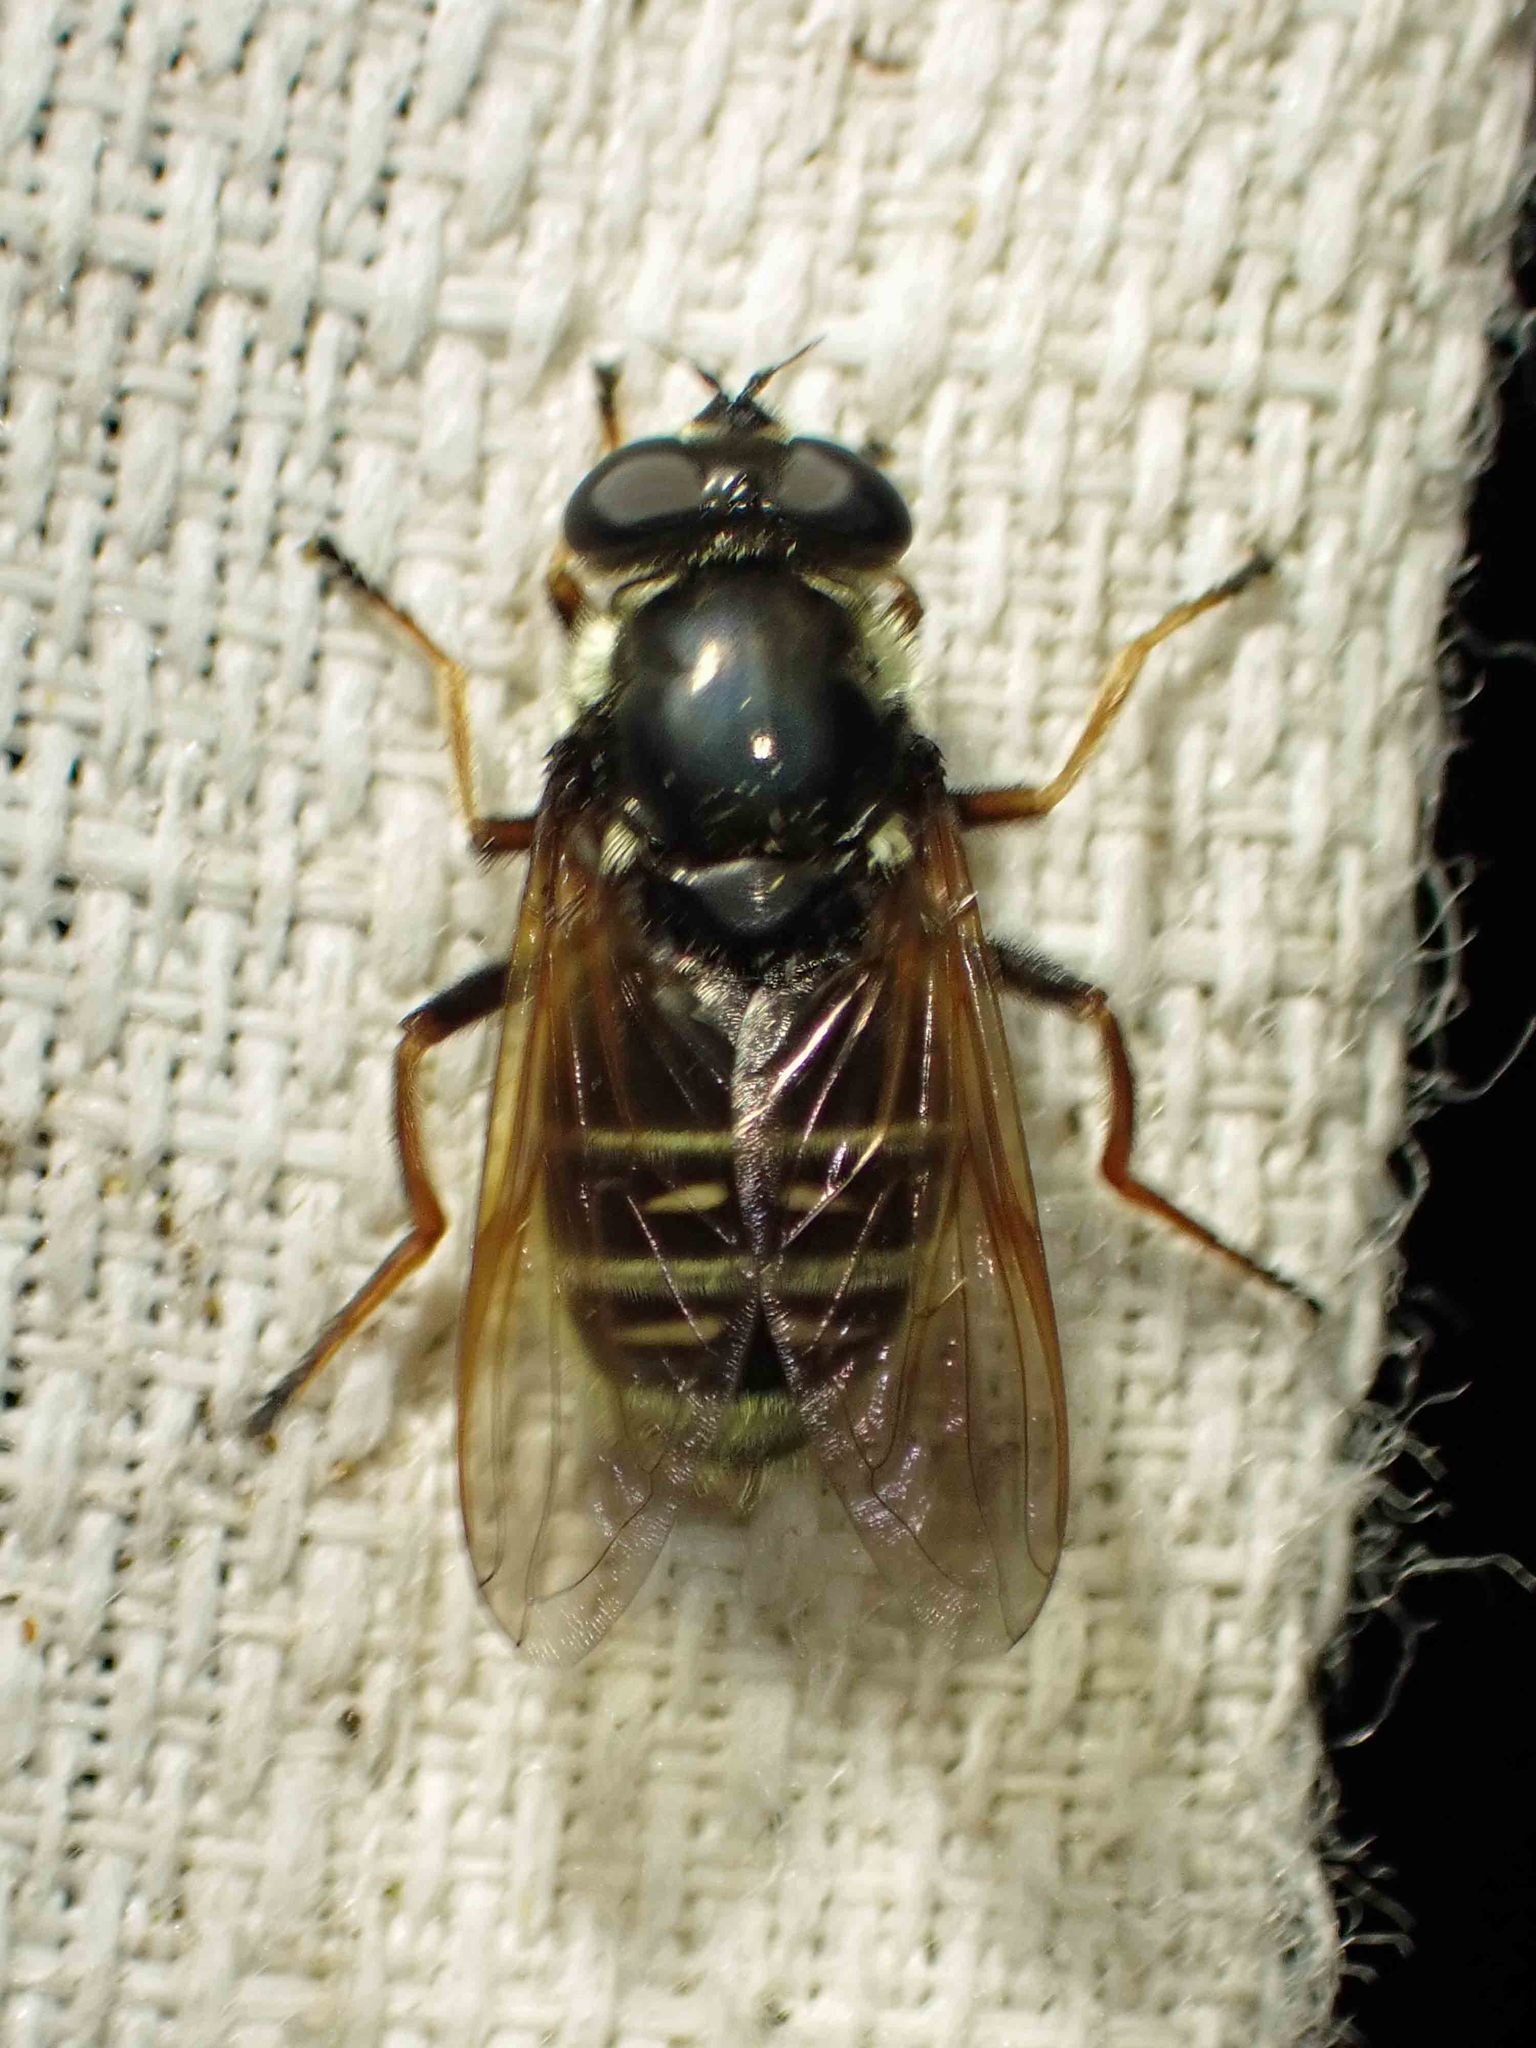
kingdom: Animalia
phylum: Arthropoda
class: Insecta
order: Diptera
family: Syrphidae
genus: Sericomyia
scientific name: Sericomyia militaris
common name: Narrow-banded pond fly
